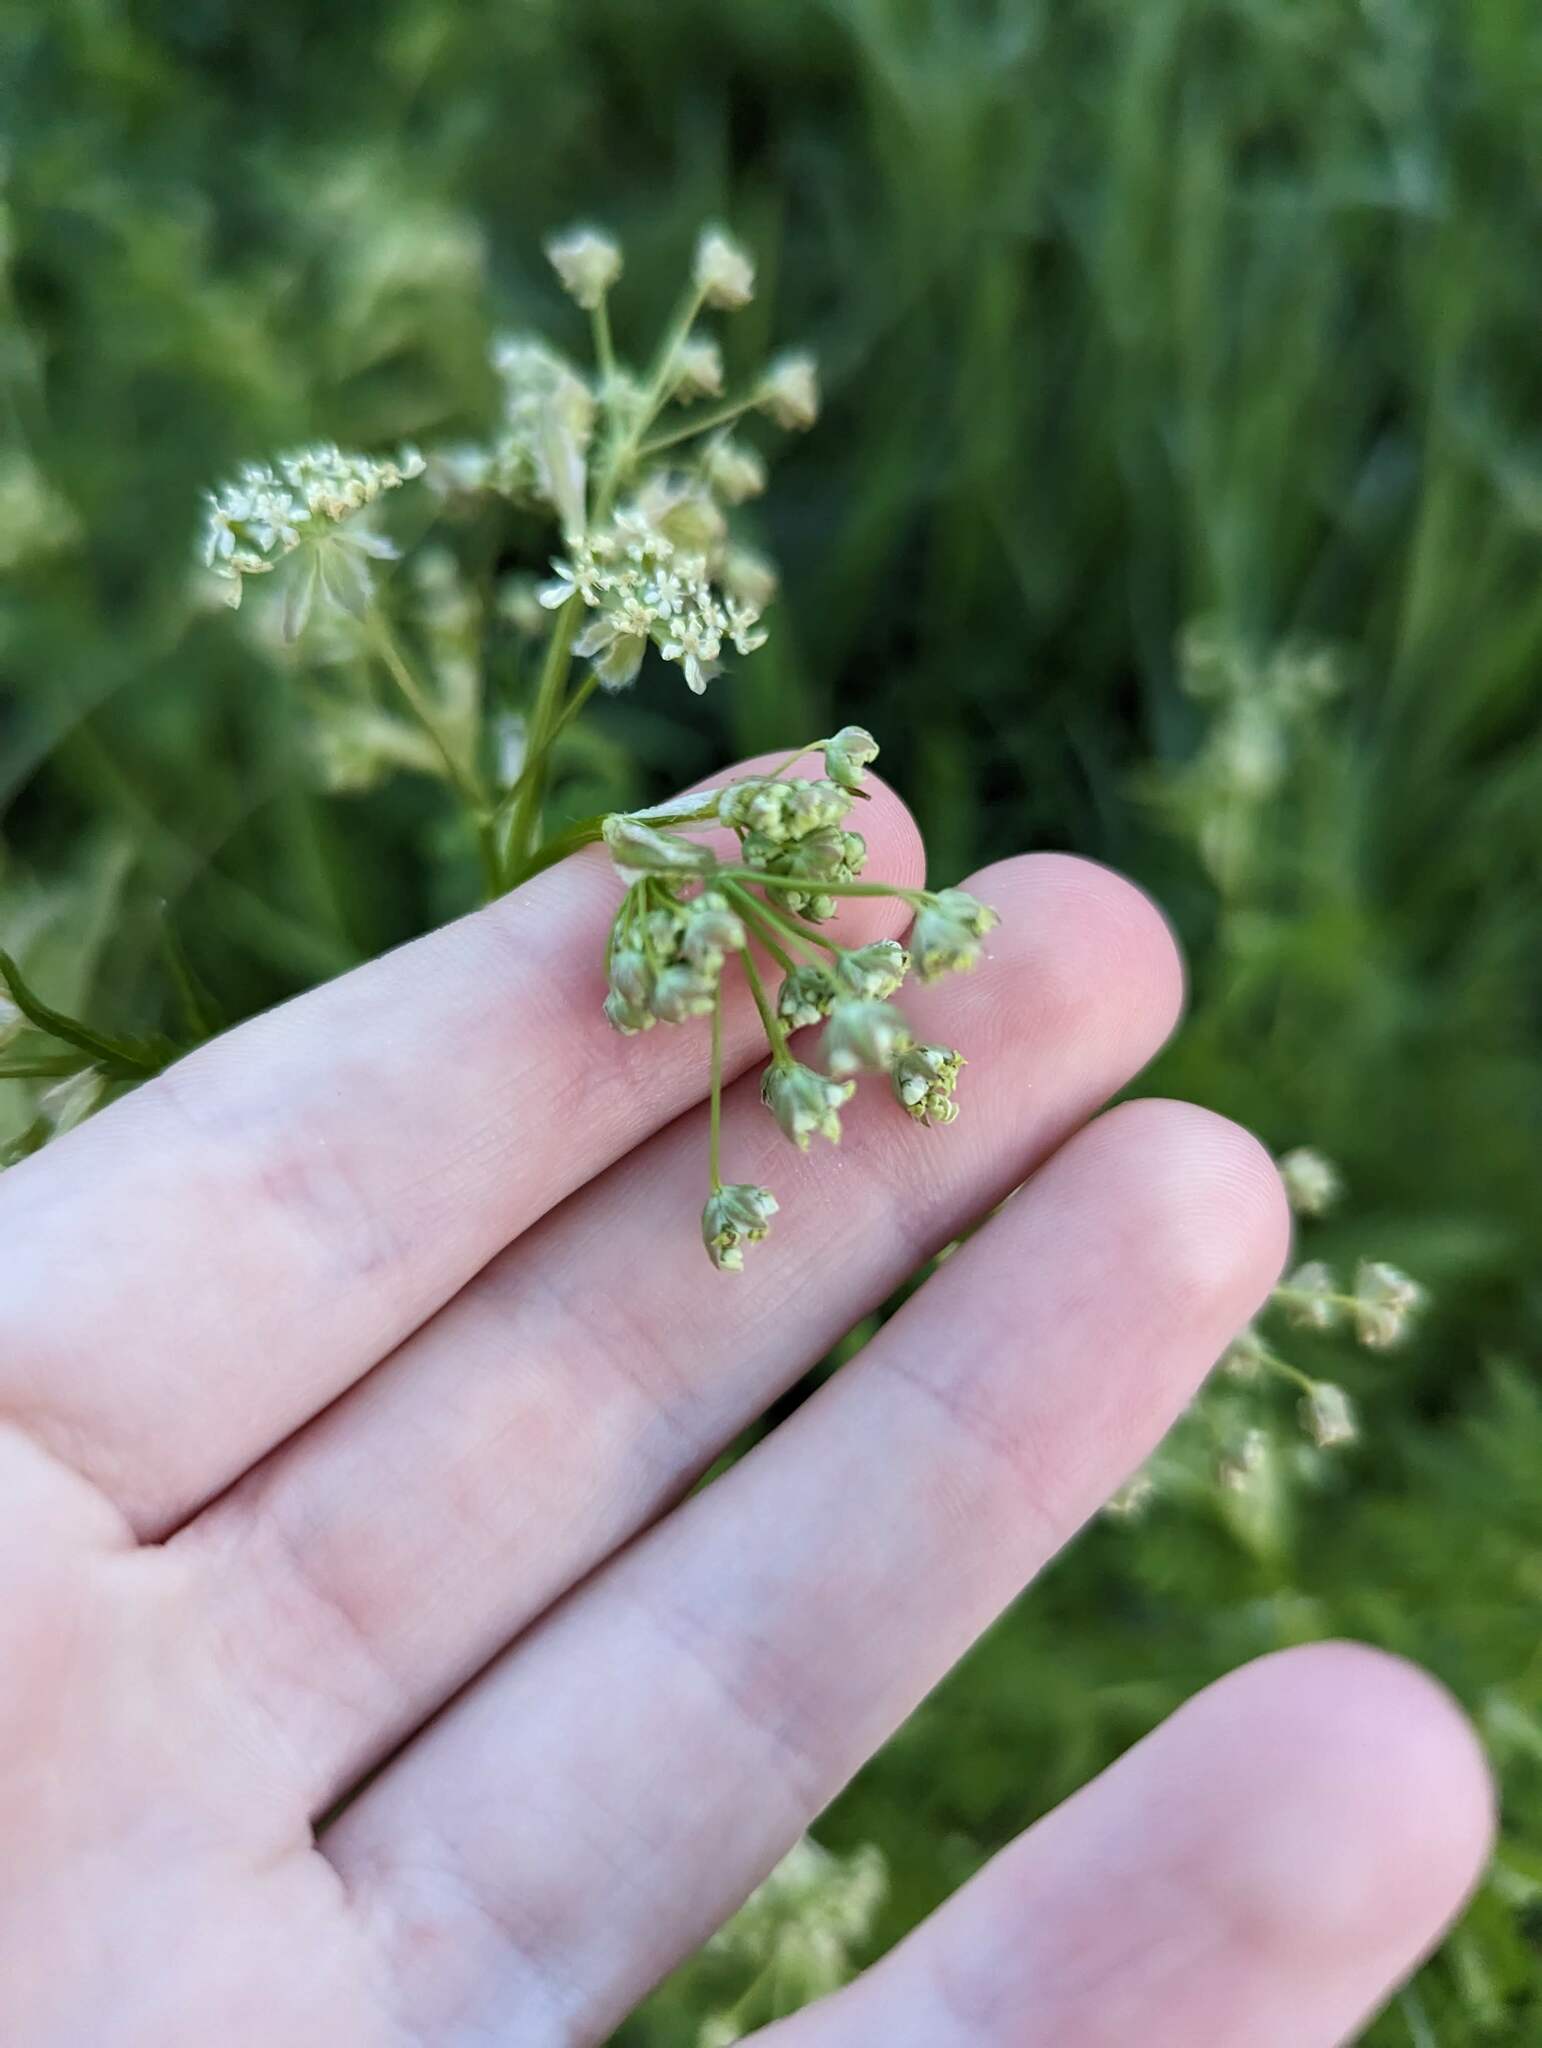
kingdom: Plantae
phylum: Tracheophyta
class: Magnoliopsida
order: Apiales
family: Apiaceae
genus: Anthriscus
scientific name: Anthriscus sylvestris
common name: Cow parsley
